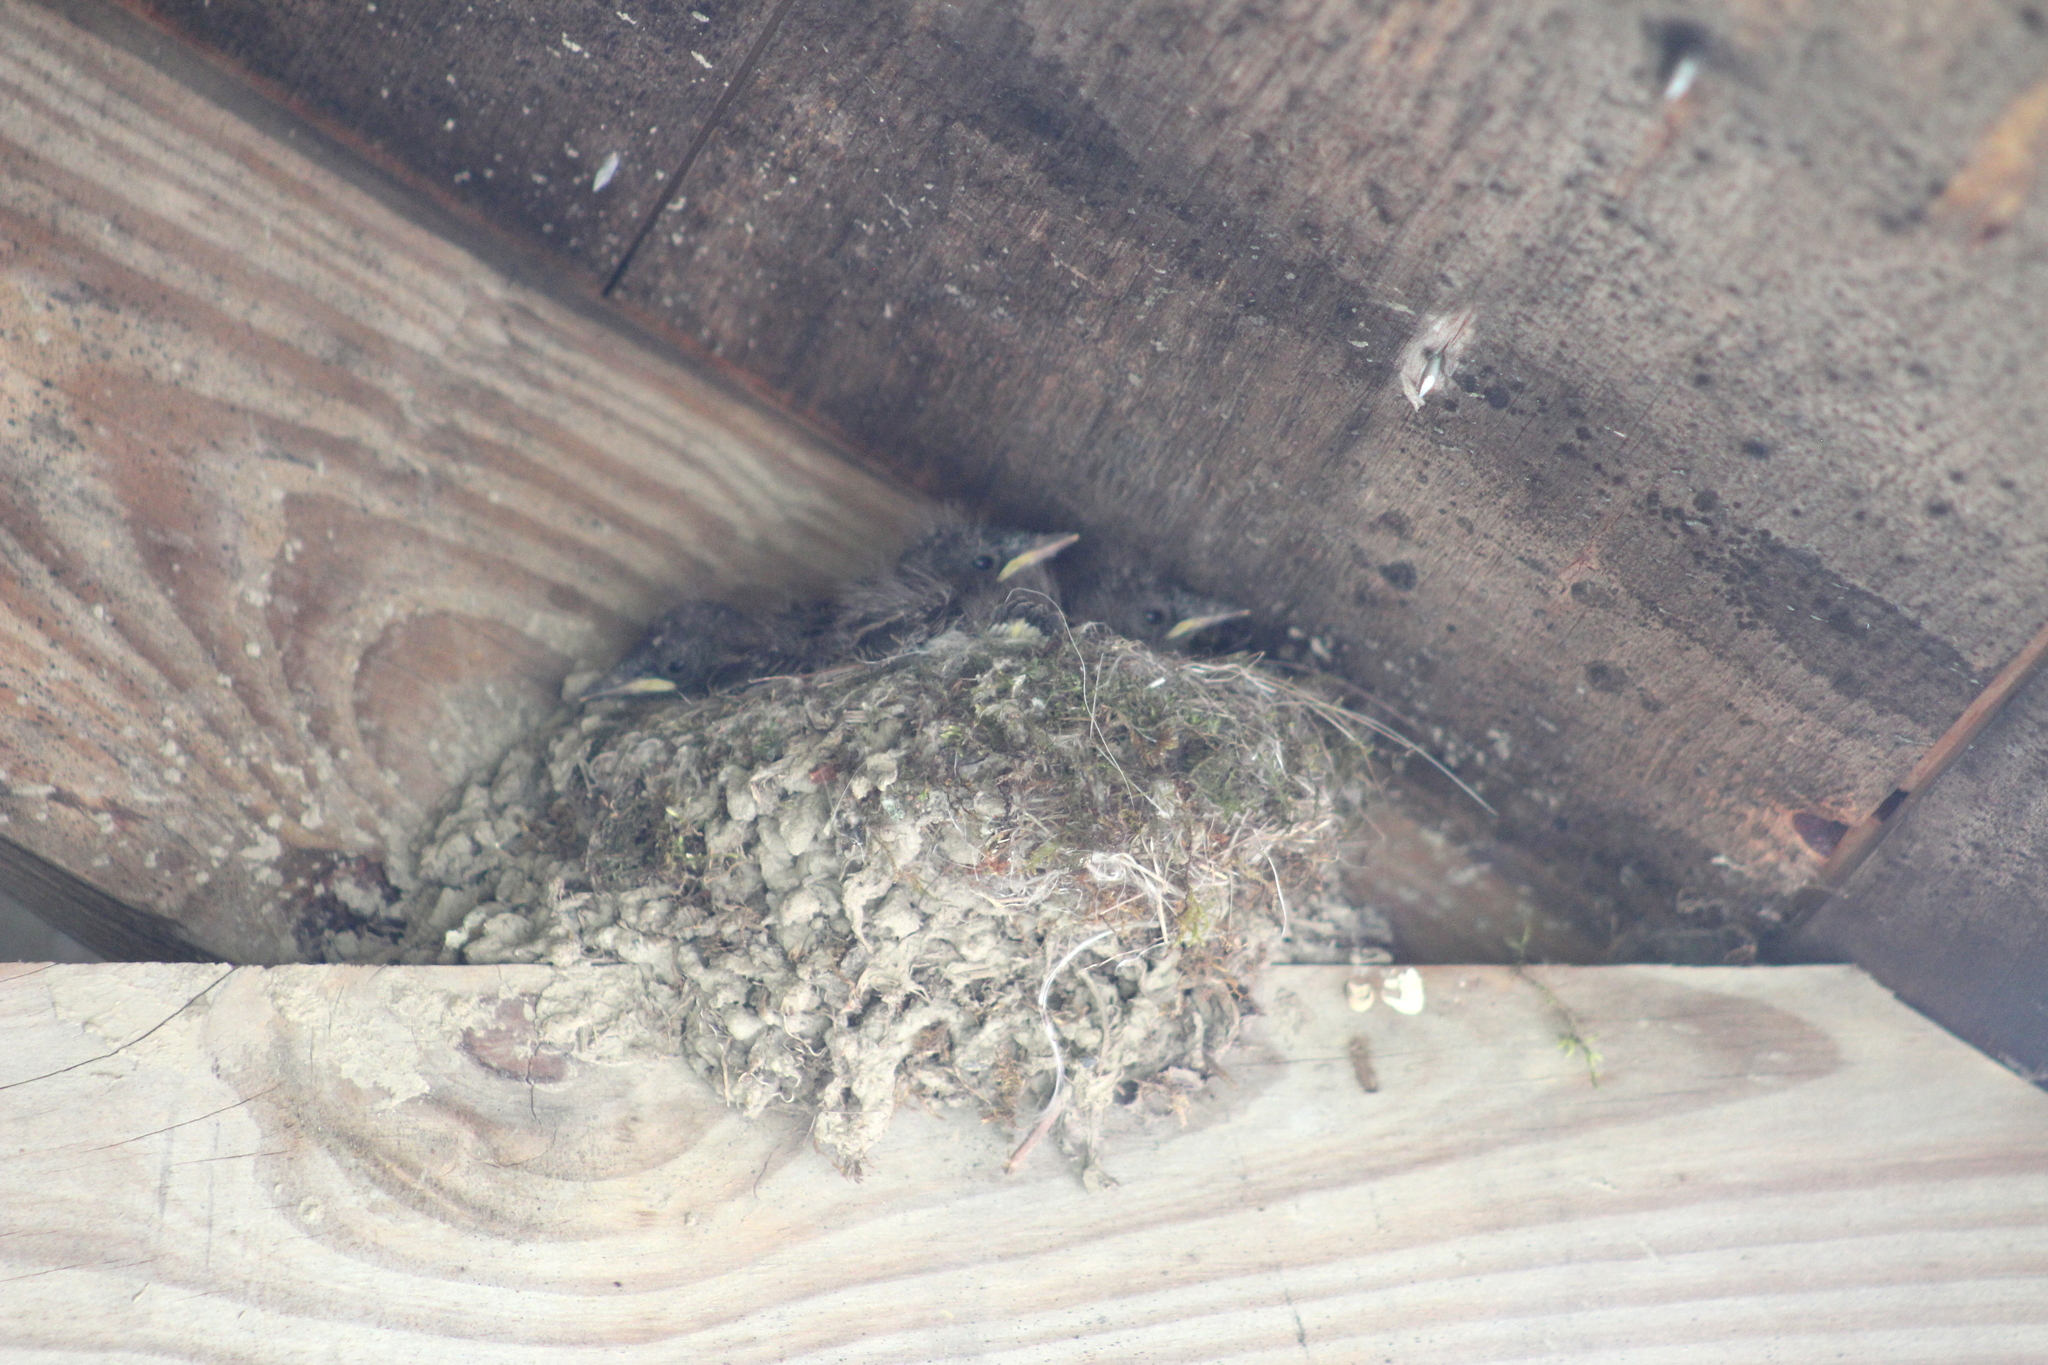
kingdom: Animalia
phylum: Chordata
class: Aves
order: Passeriformes
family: Tyrannidae
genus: Sayornis
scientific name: Sayornis phoebe
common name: Eastern phoebe
